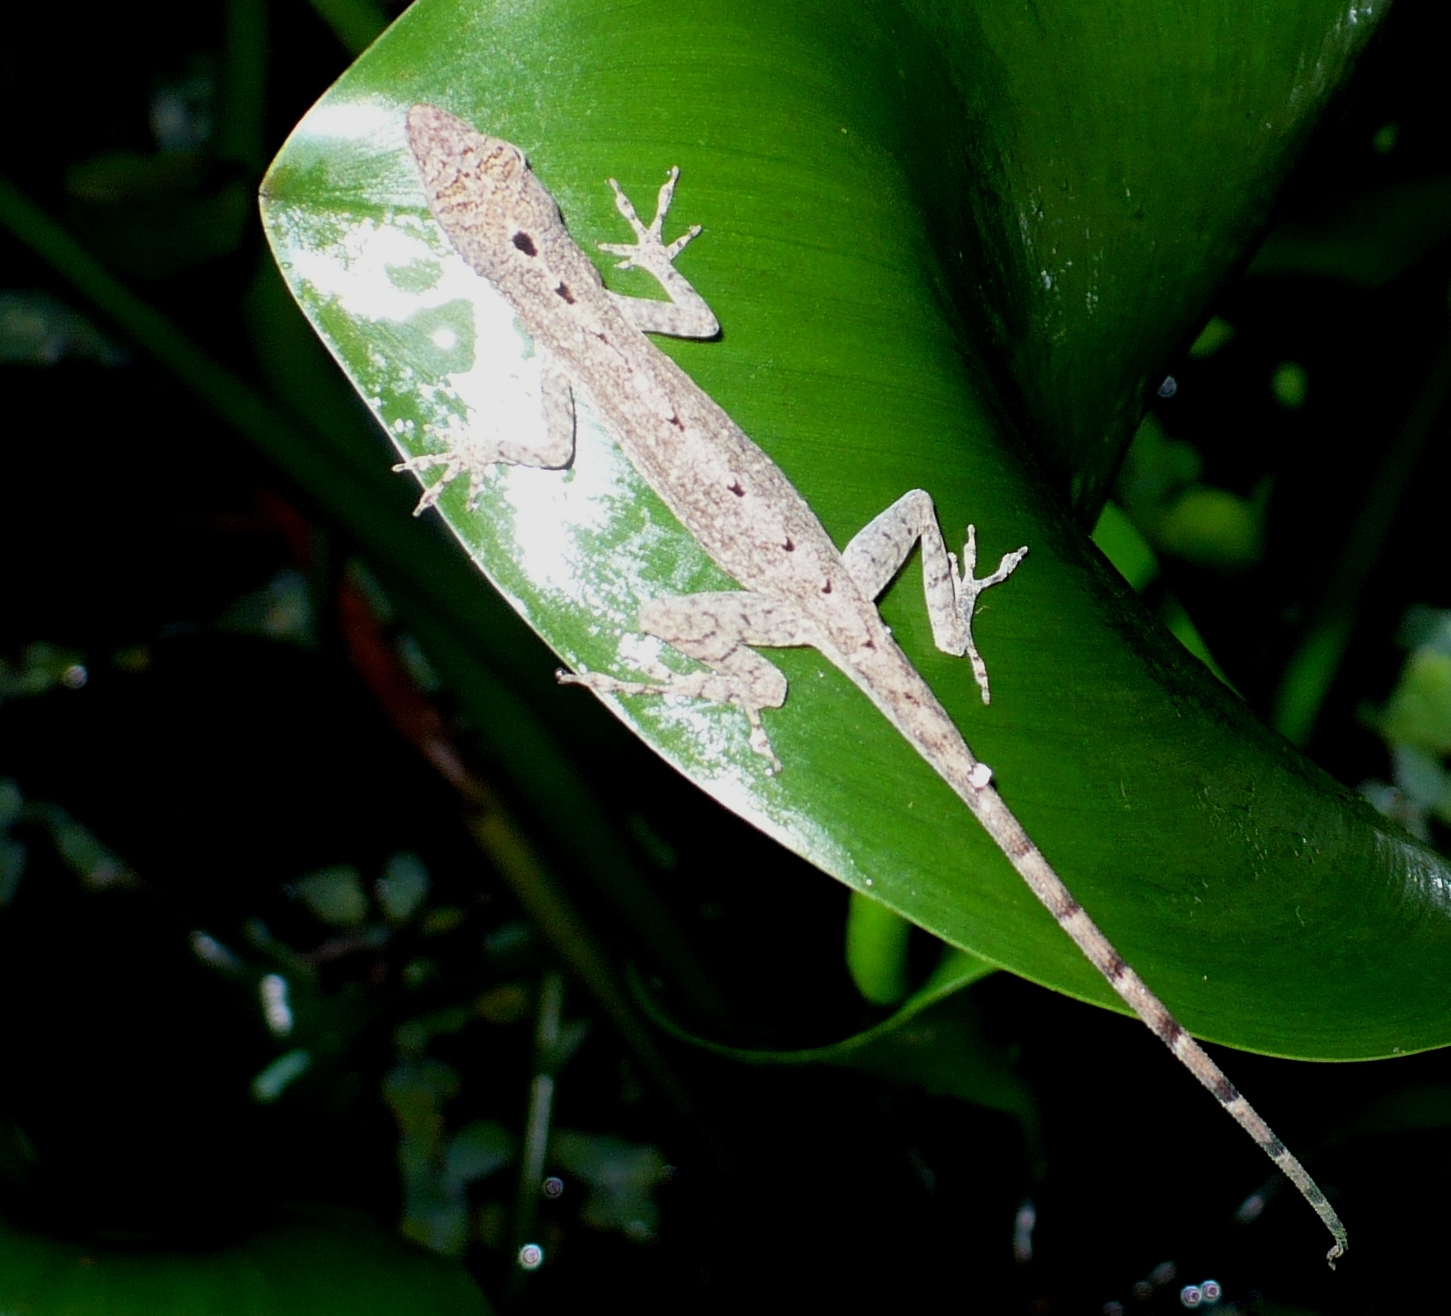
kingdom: Animalia
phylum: Chordata
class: Squamata
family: Dactyloidae
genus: Anolis
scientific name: Anolis limifrons
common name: Border anole
